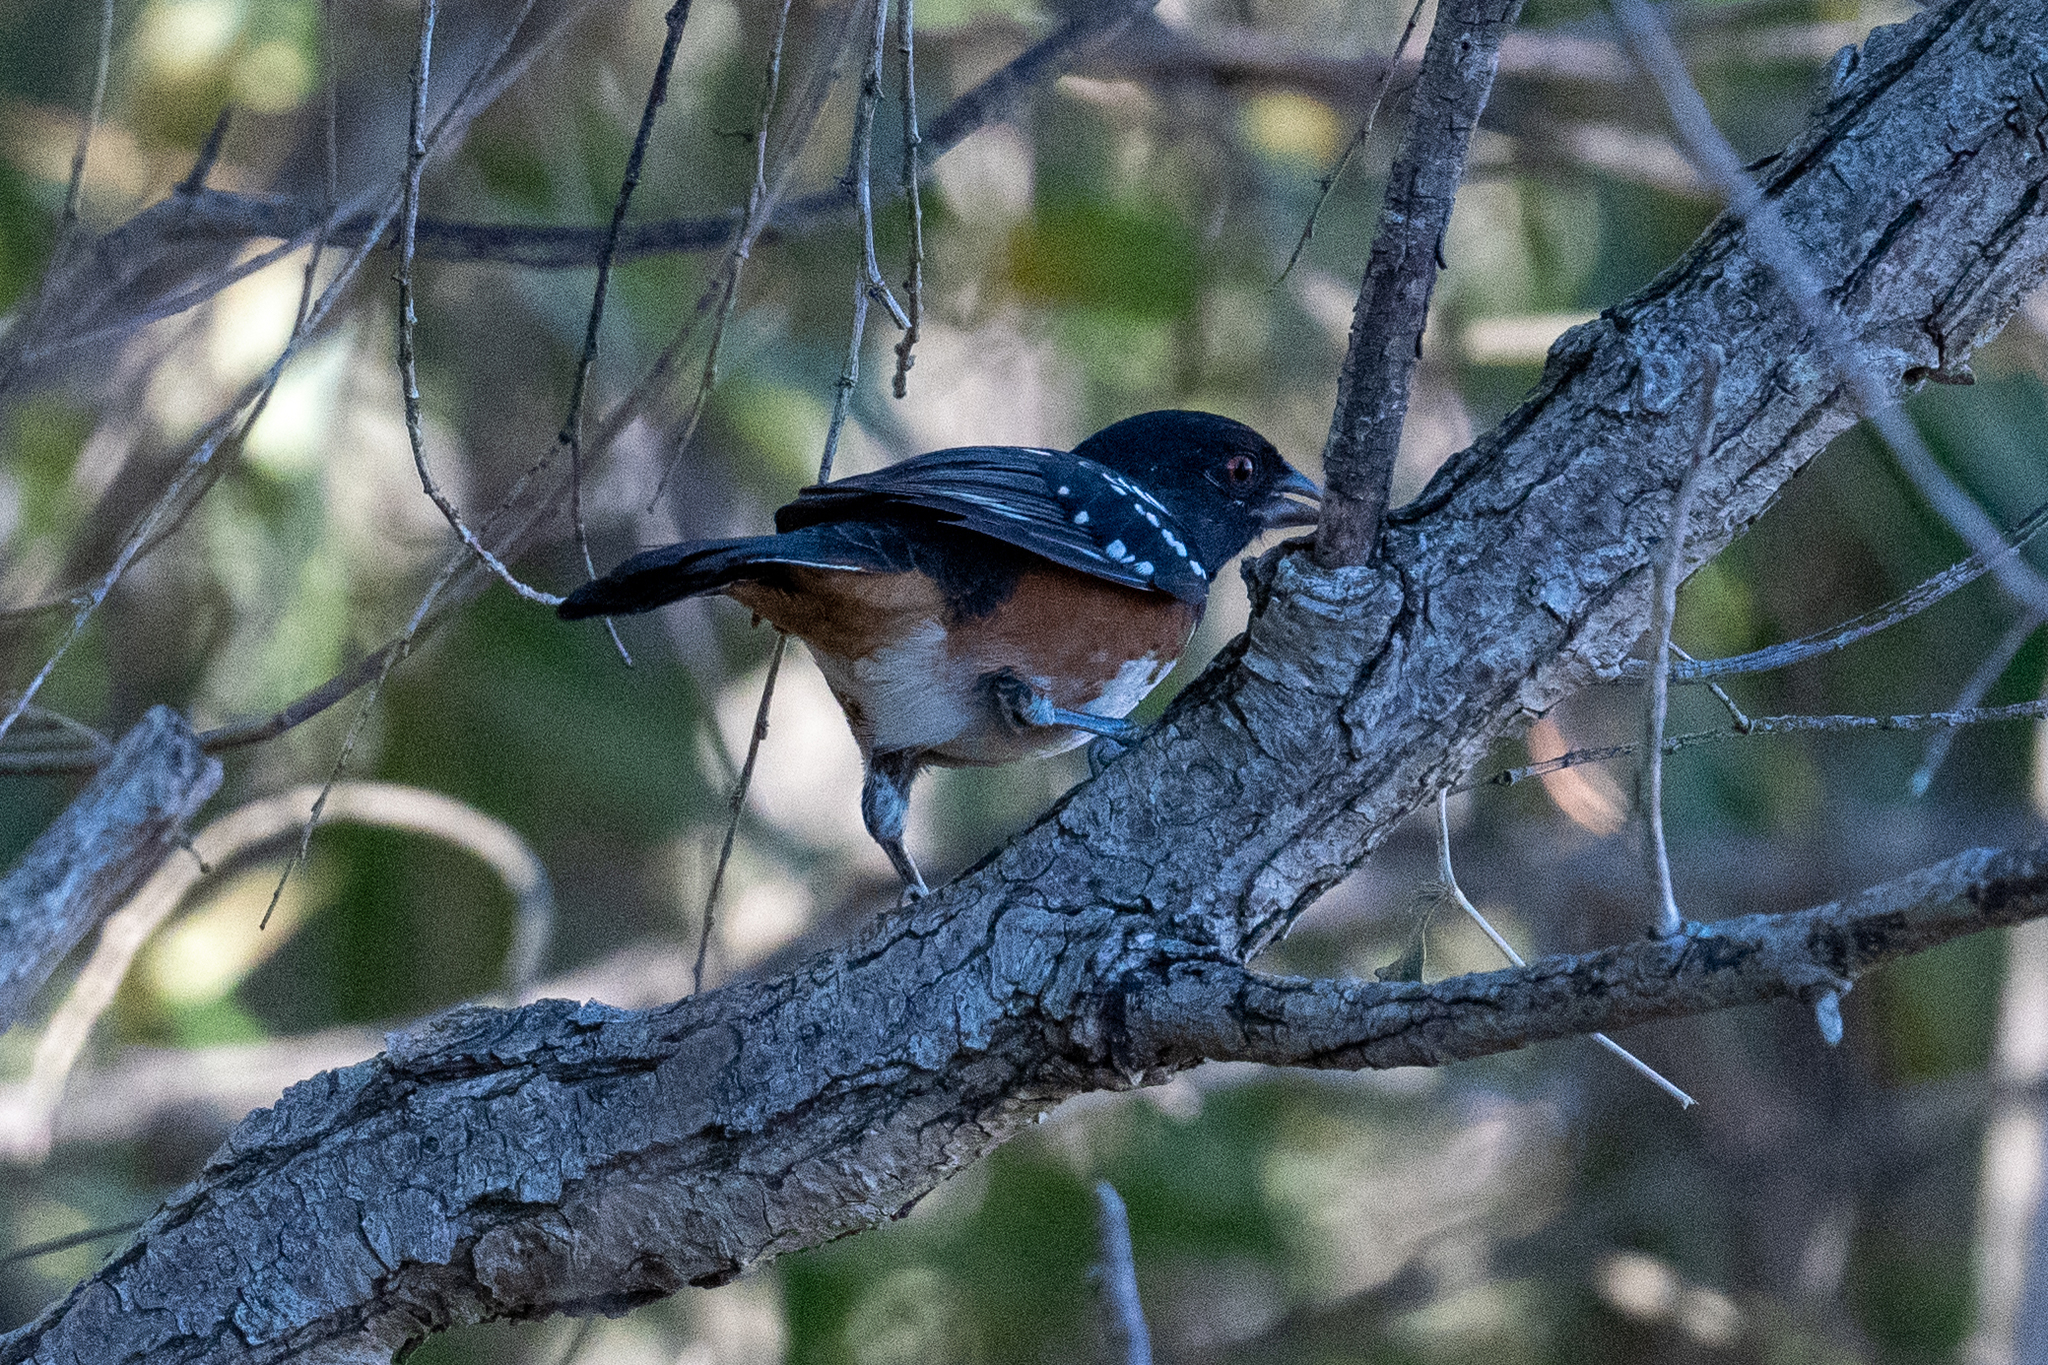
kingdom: Animalia
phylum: Chordata
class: Aves
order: Passeriformes
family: Passerellidae
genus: Pipilo
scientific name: Pipilo maculatus
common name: Spotted towhee
